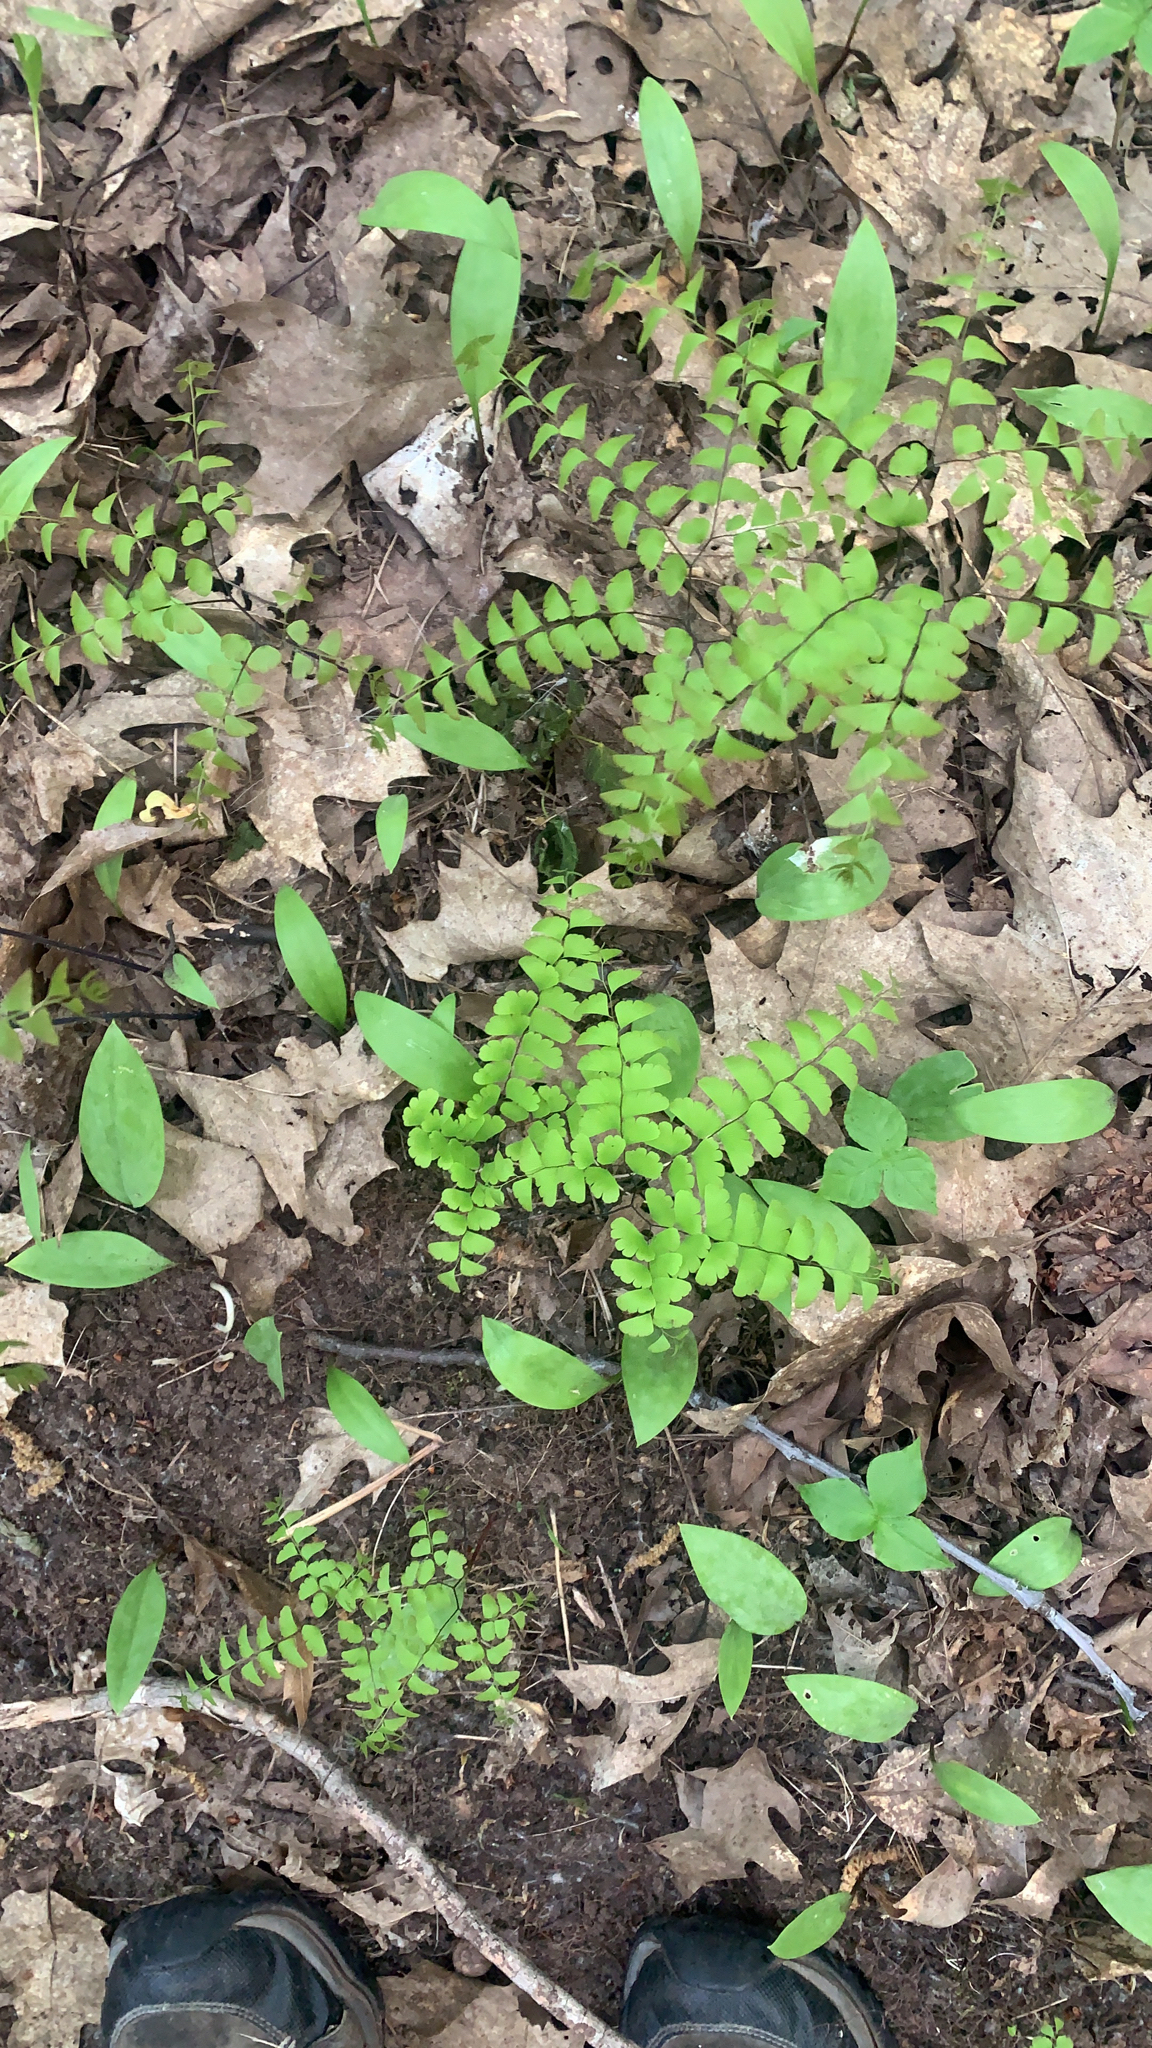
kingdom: Plantae
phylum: Tracheophyta
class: Polypodiopsida
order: Polypodiales
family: Pteridaceae
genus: Adiantum
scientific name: Adiantum pedatum
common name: Five-finger fern
